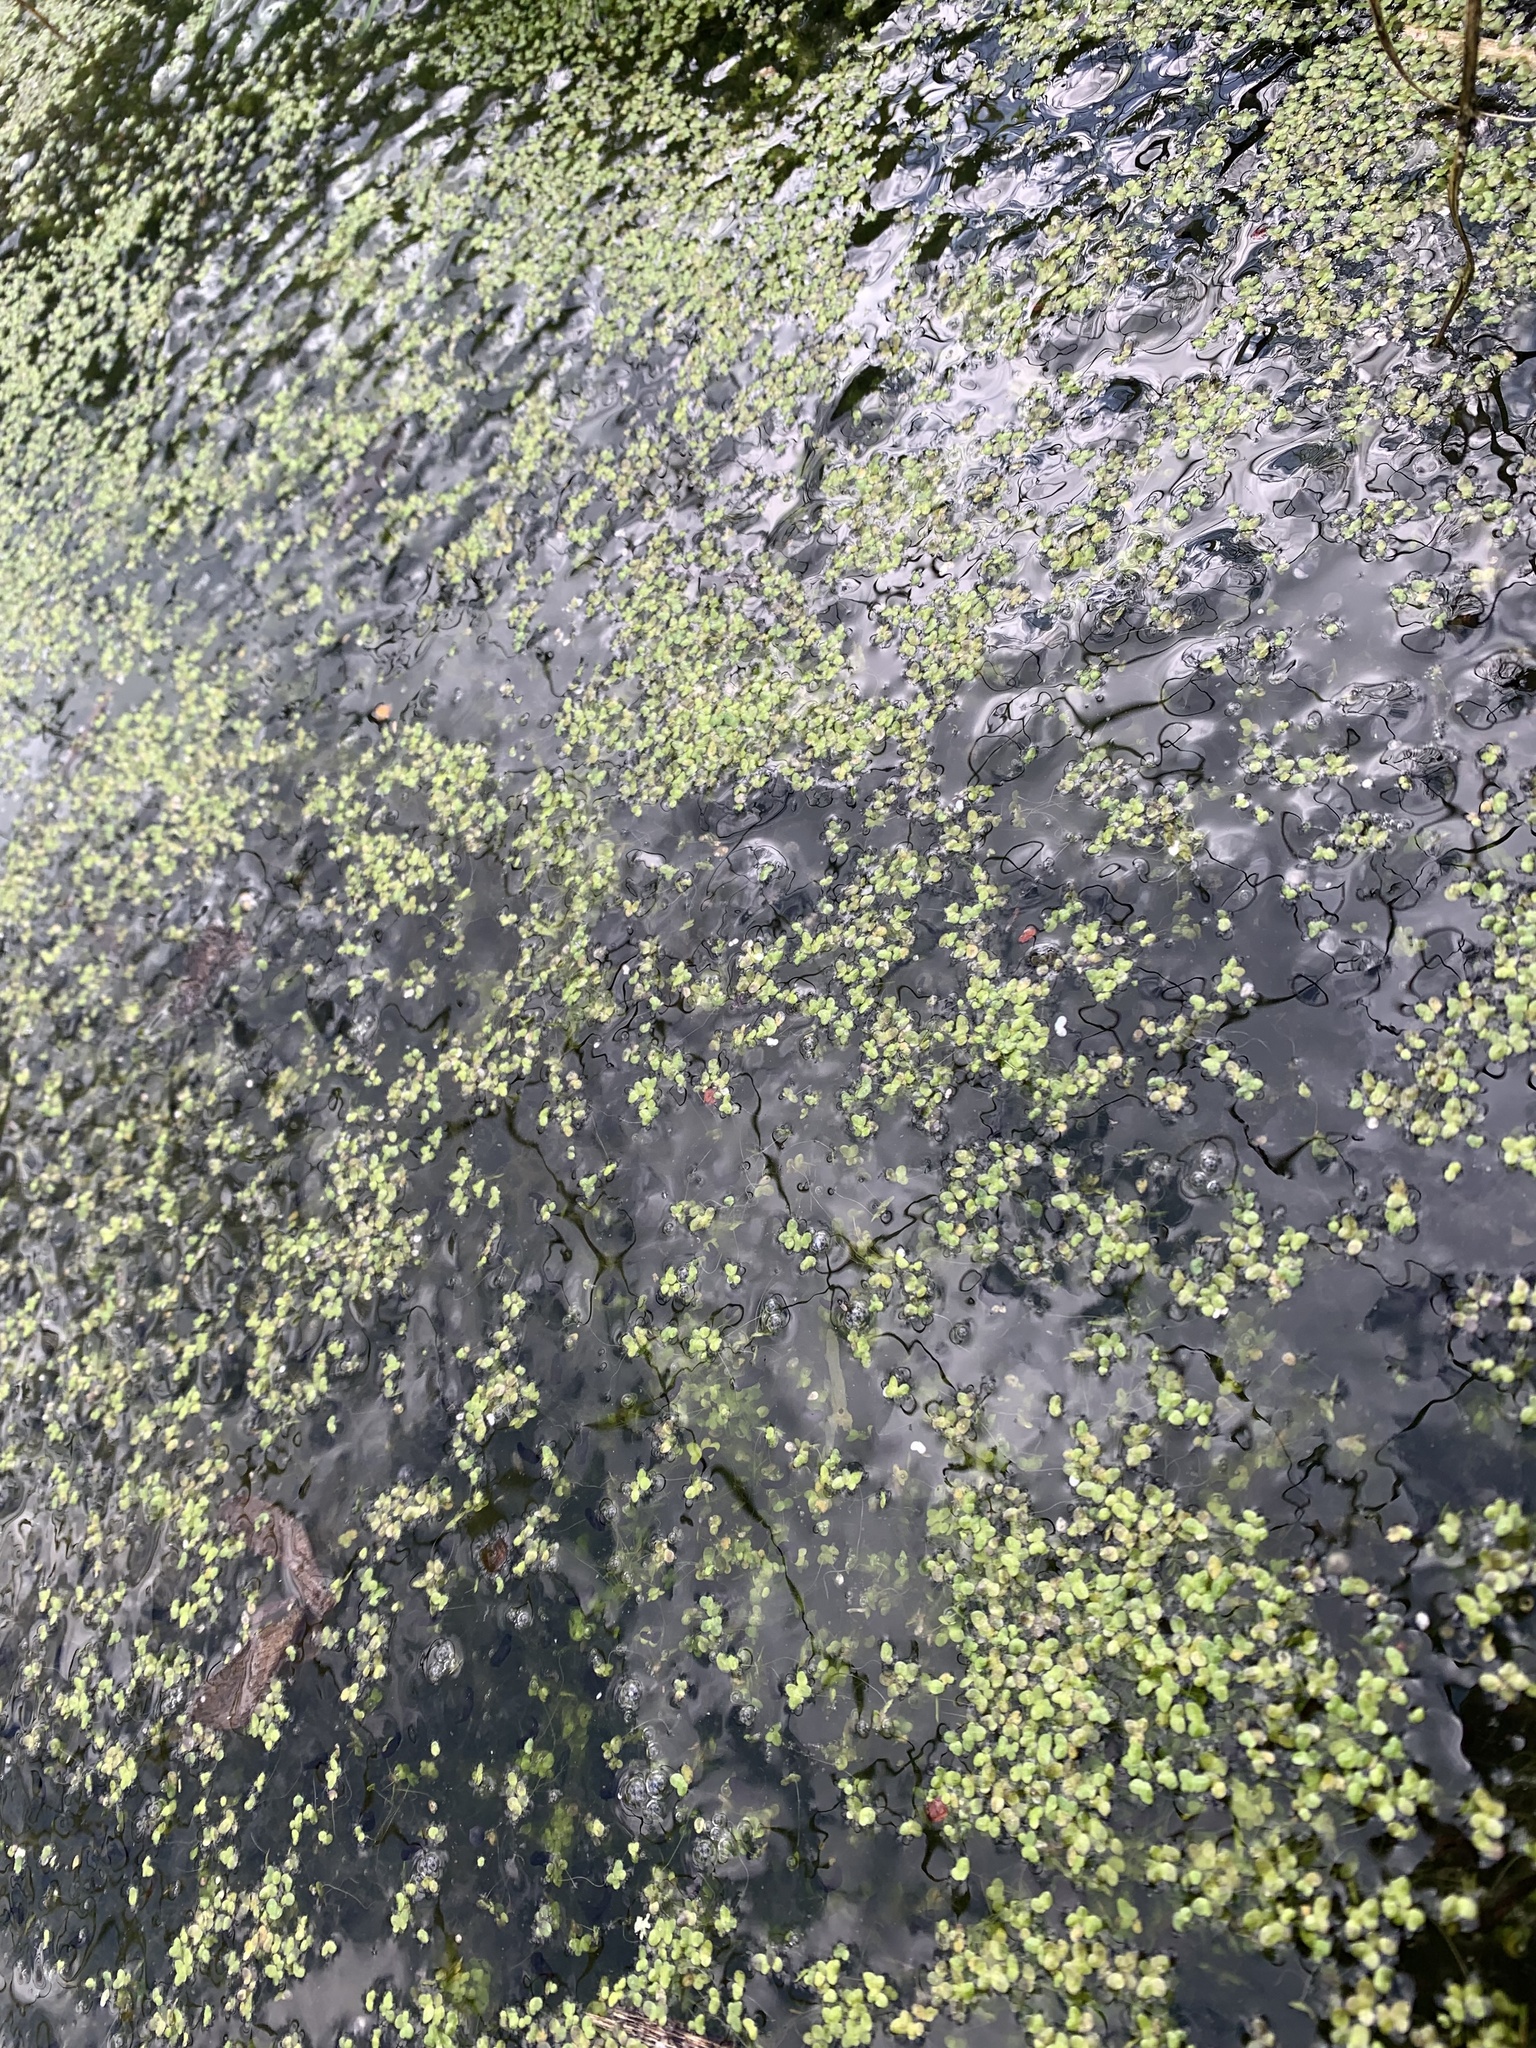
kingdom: Animalia
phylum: Chordata
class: Amphibia
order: Anura
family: Ranidae
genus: Rana
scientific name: Rana temporaria
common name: Common frog
